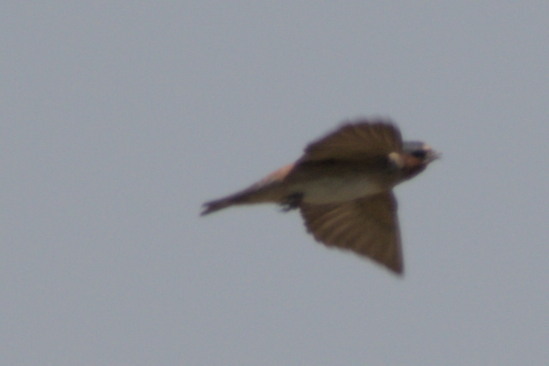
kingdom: Animalia
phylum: Chordata
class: Aves
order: Passeriformes
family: Hirundinidae
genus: Petrochelidon
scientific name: Petrochelidon pyrrhonota
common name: American cliff swallow
